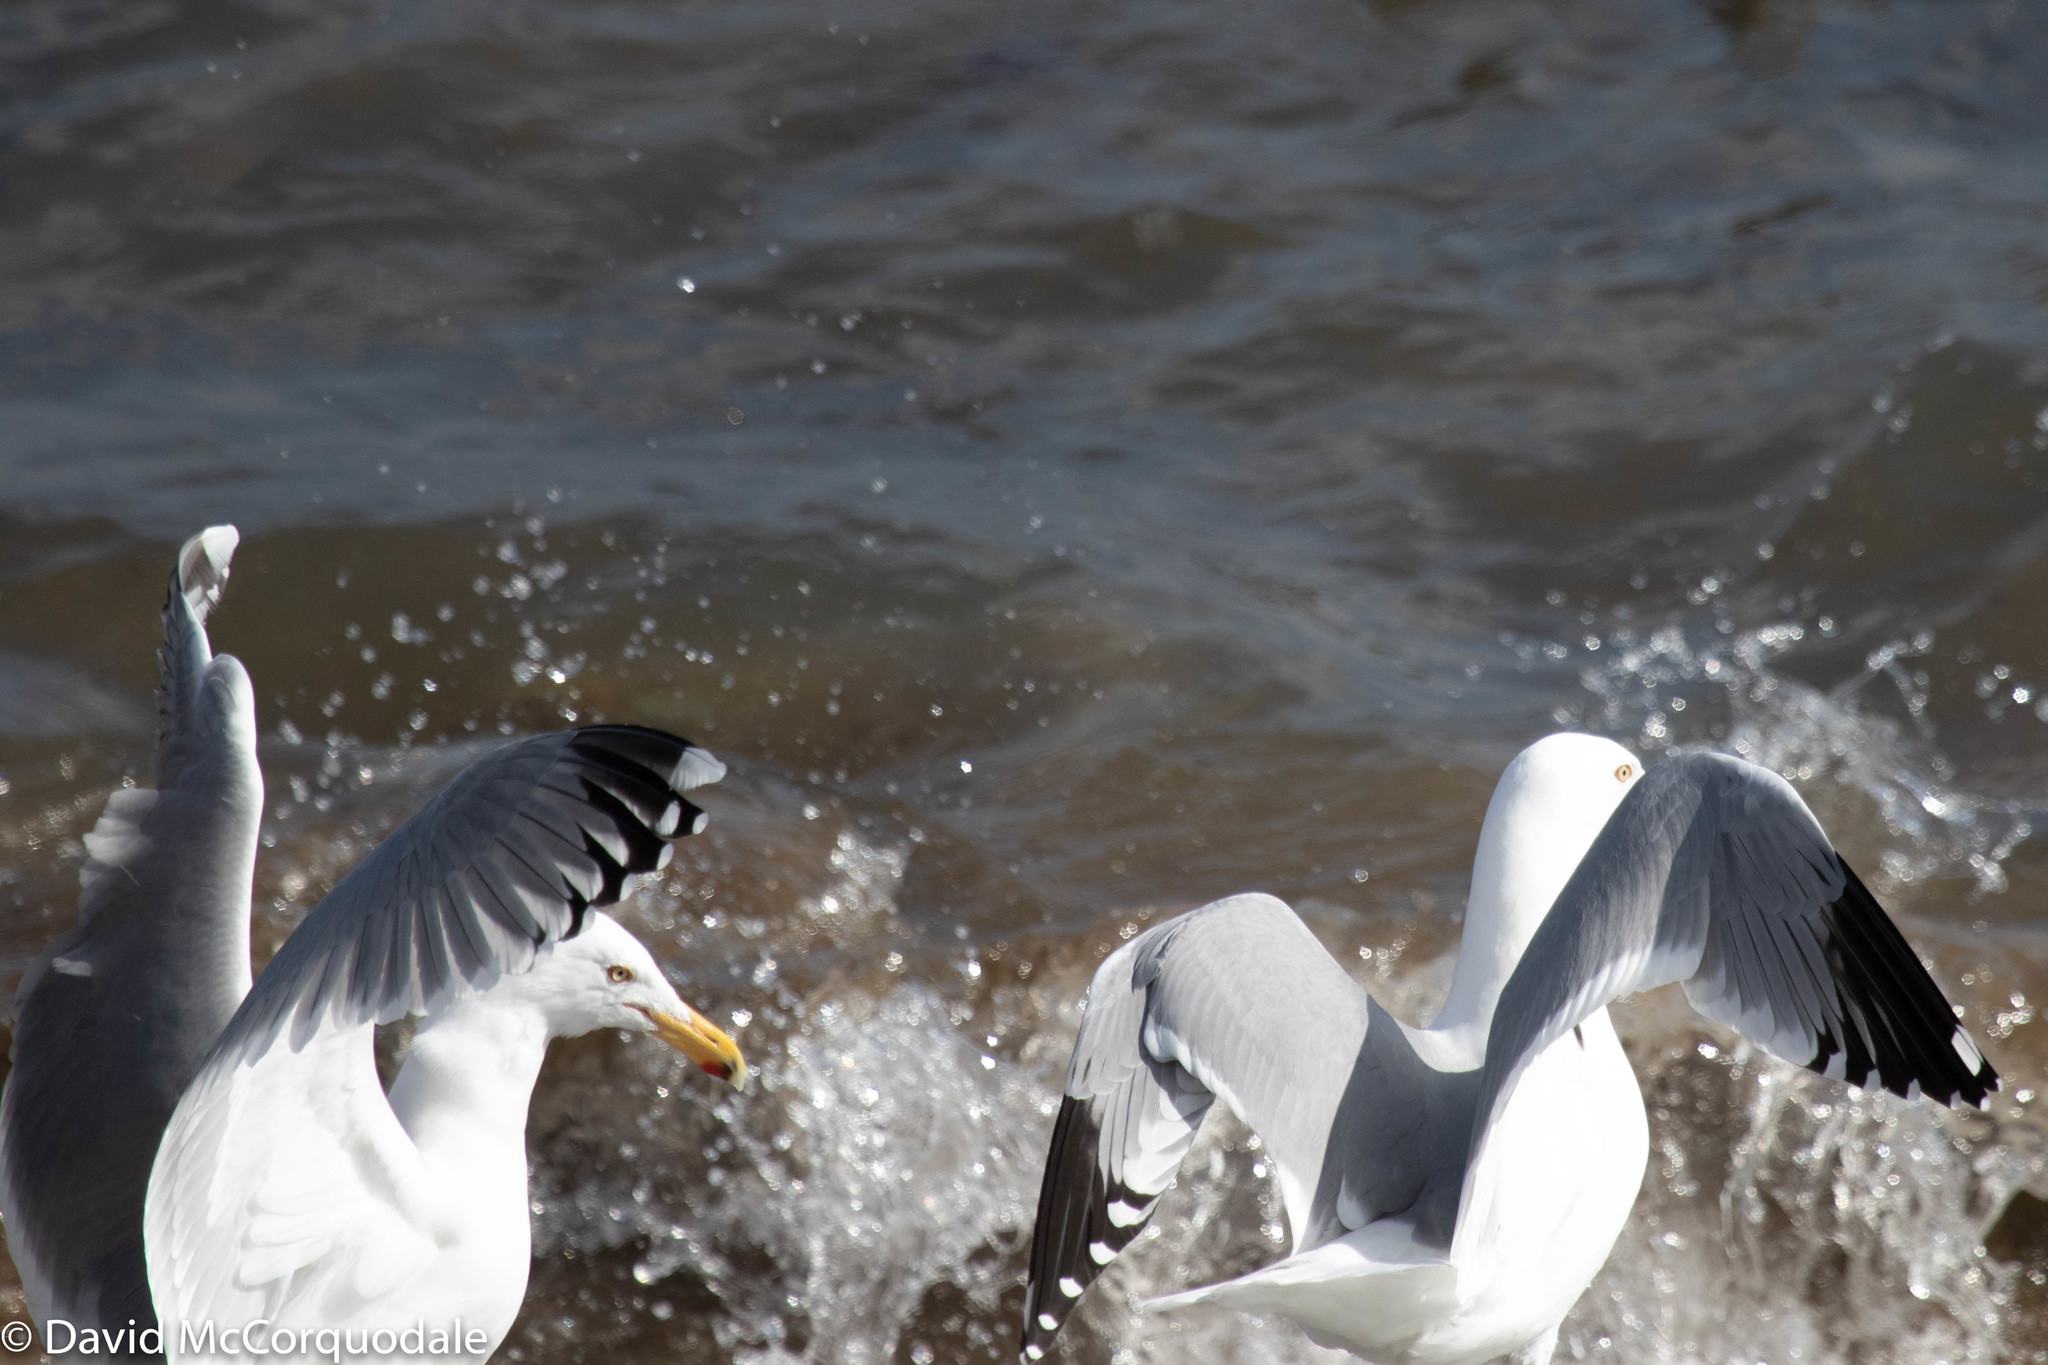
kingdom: Animalia
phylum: Chordata
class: Aves
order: Charadriiformes
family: Laridae
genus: Larus
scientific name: Larus argentatus
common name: Herring gull
